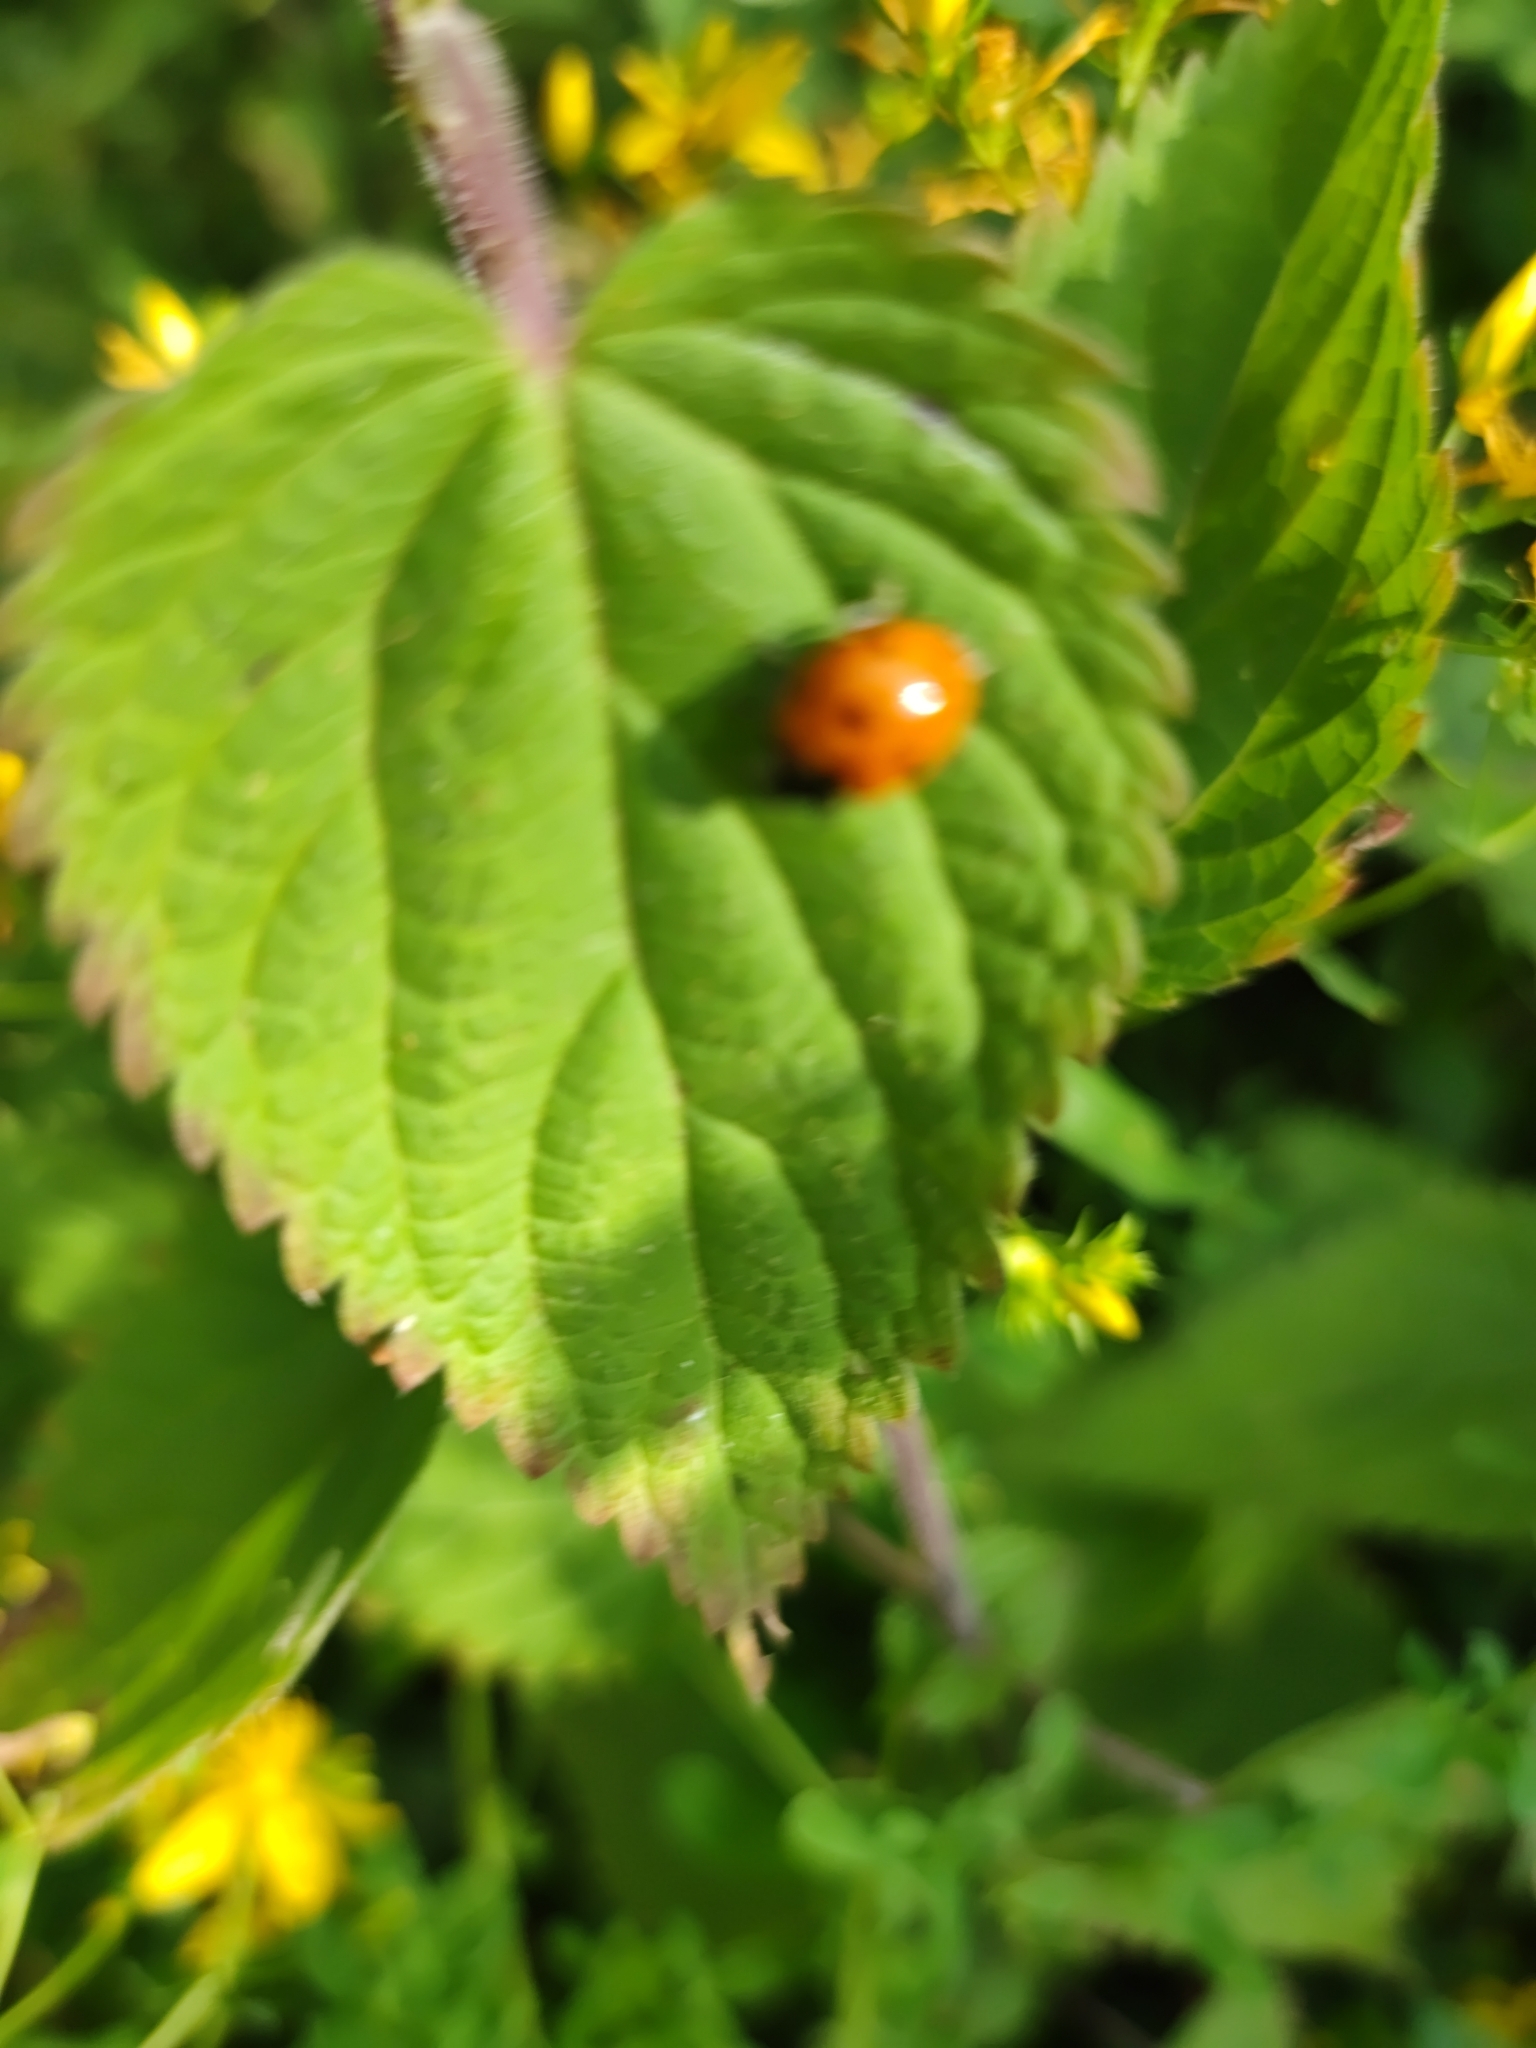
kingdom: Animalia
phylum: Arthropoda
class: Insecta
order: Coleoptera
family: Coccinellidae
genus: Coccinellina
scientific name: Coccinellina
